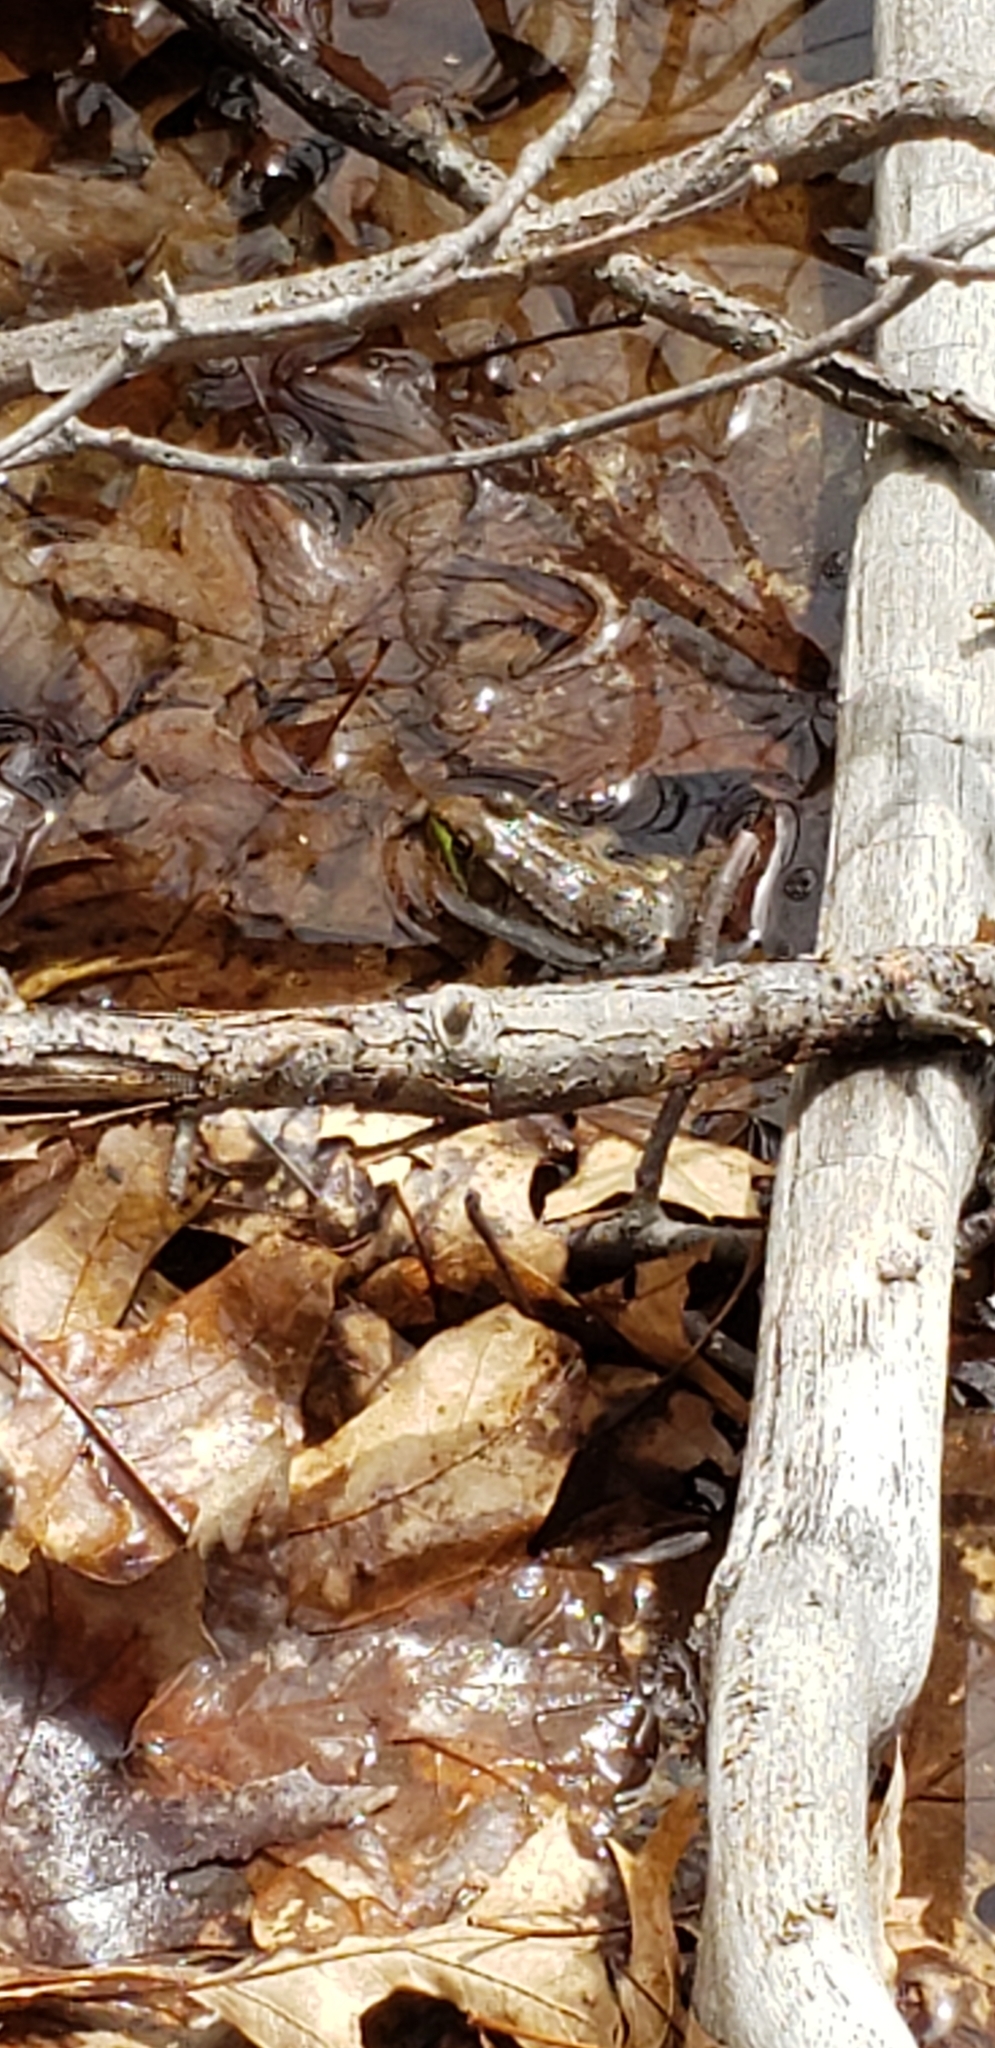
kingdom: Animalia
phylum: Chordata
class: Amphibia
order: Anura
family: Ranidae
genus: Lithobates
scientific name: Lithobates clamitans
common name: Green frog
